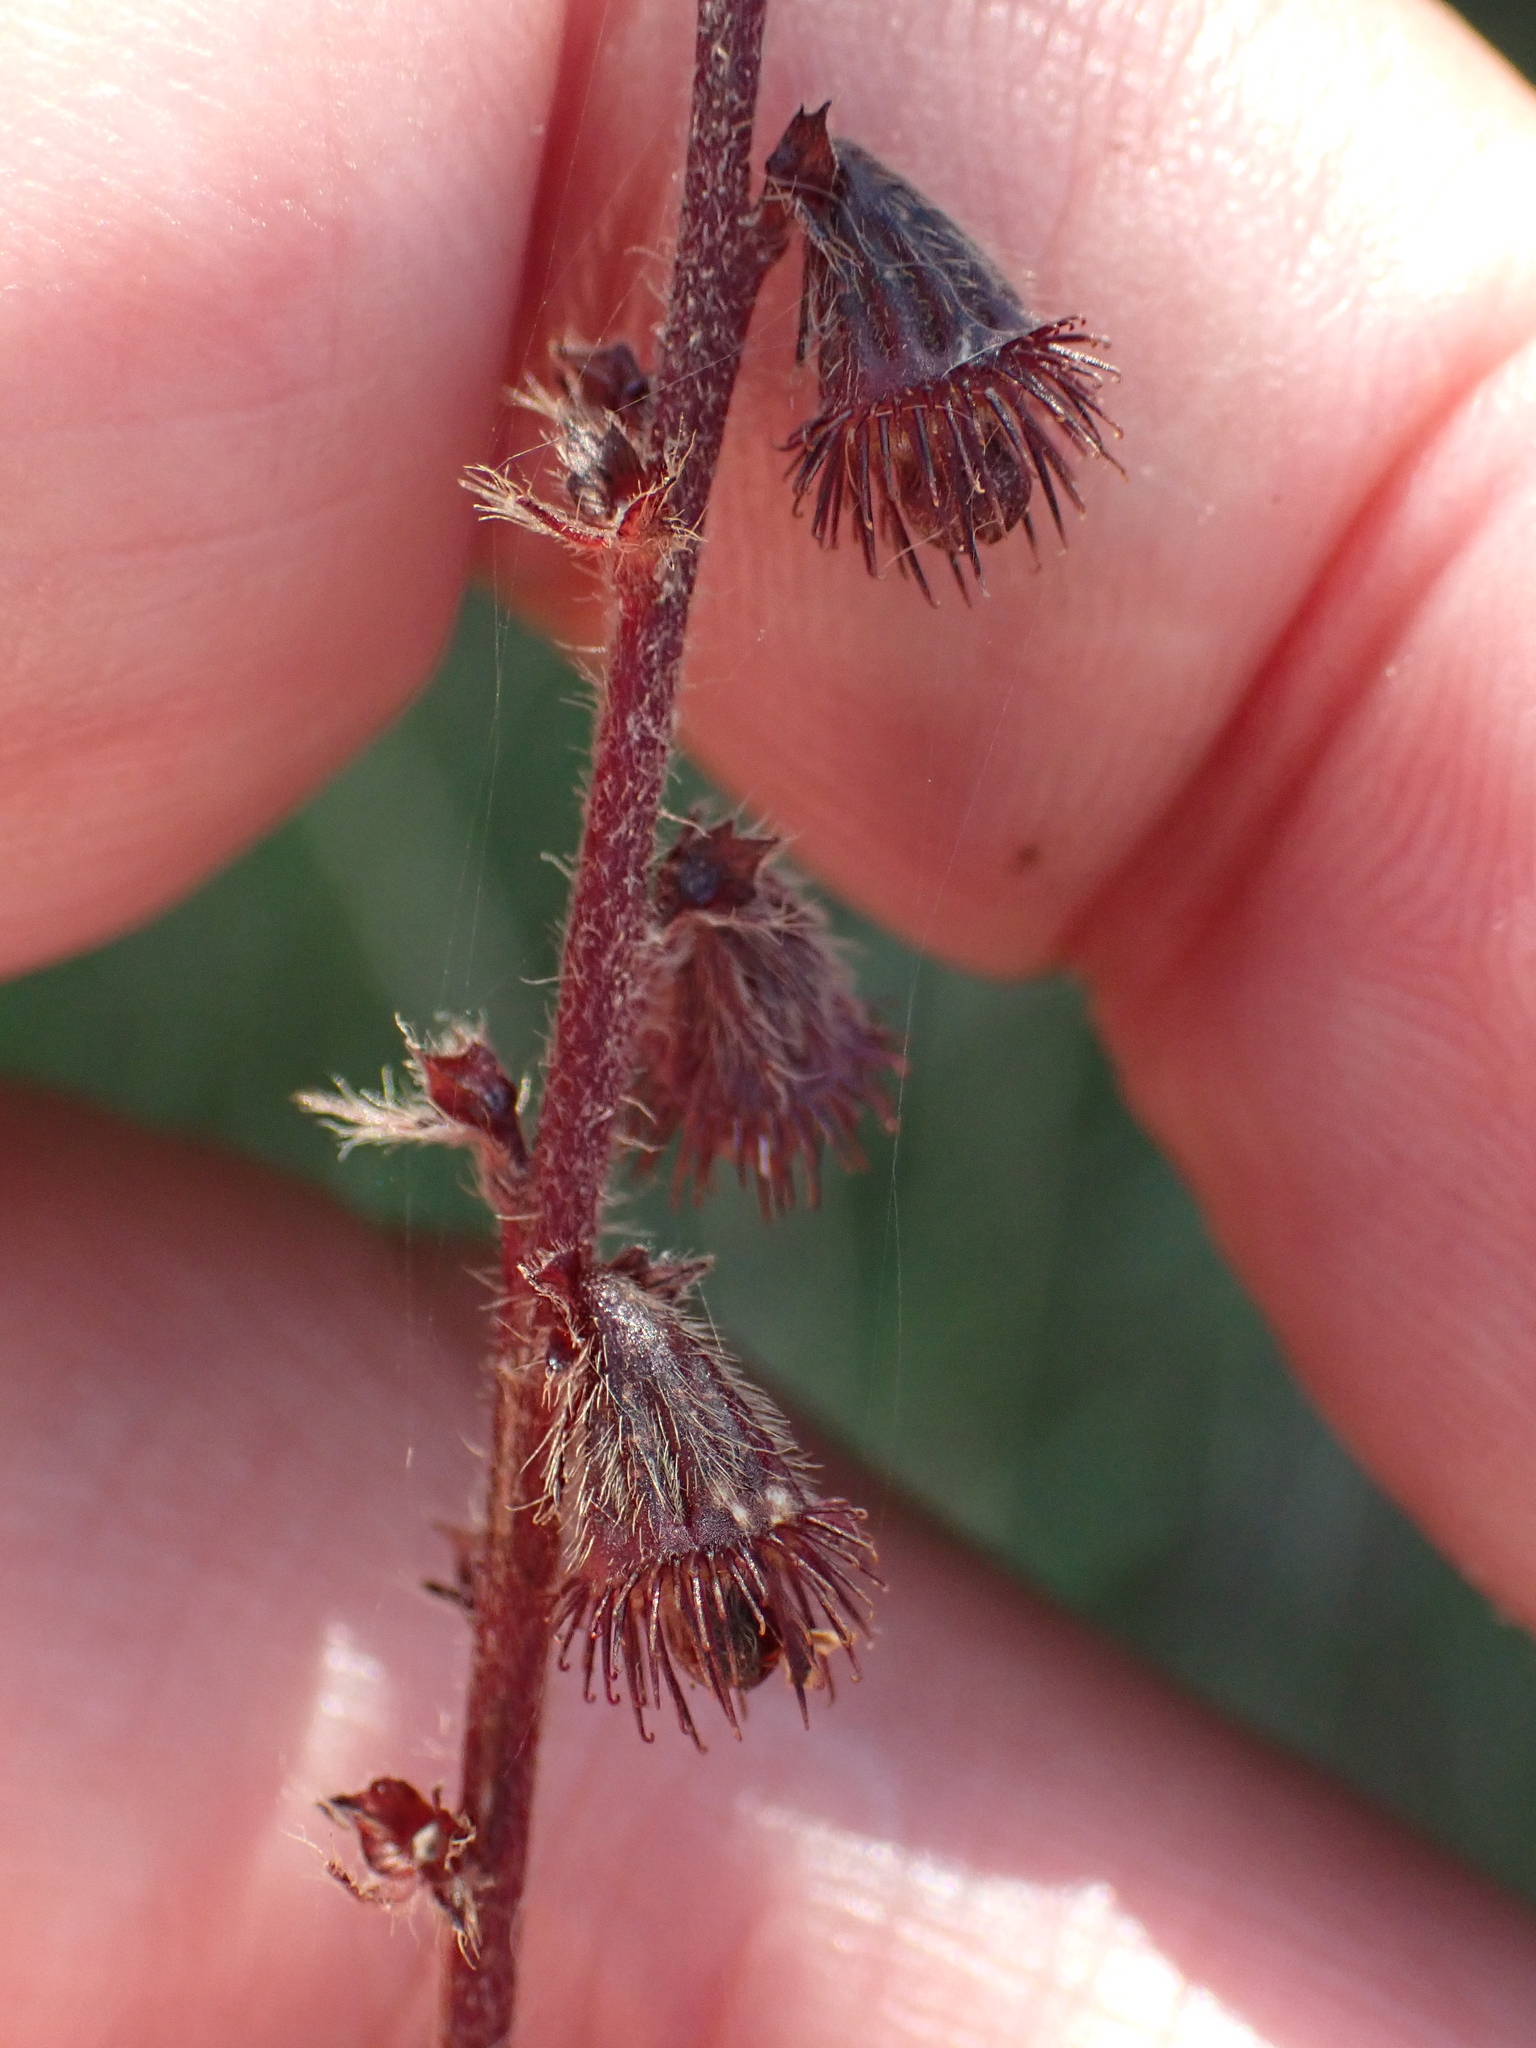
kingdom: Plantae
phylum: Tracheophyta
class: Magnoliopsida
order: Rosales
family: Rosaceae
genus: Agrimonia
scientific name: Agrimonia eupatoria
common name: Agrimony
